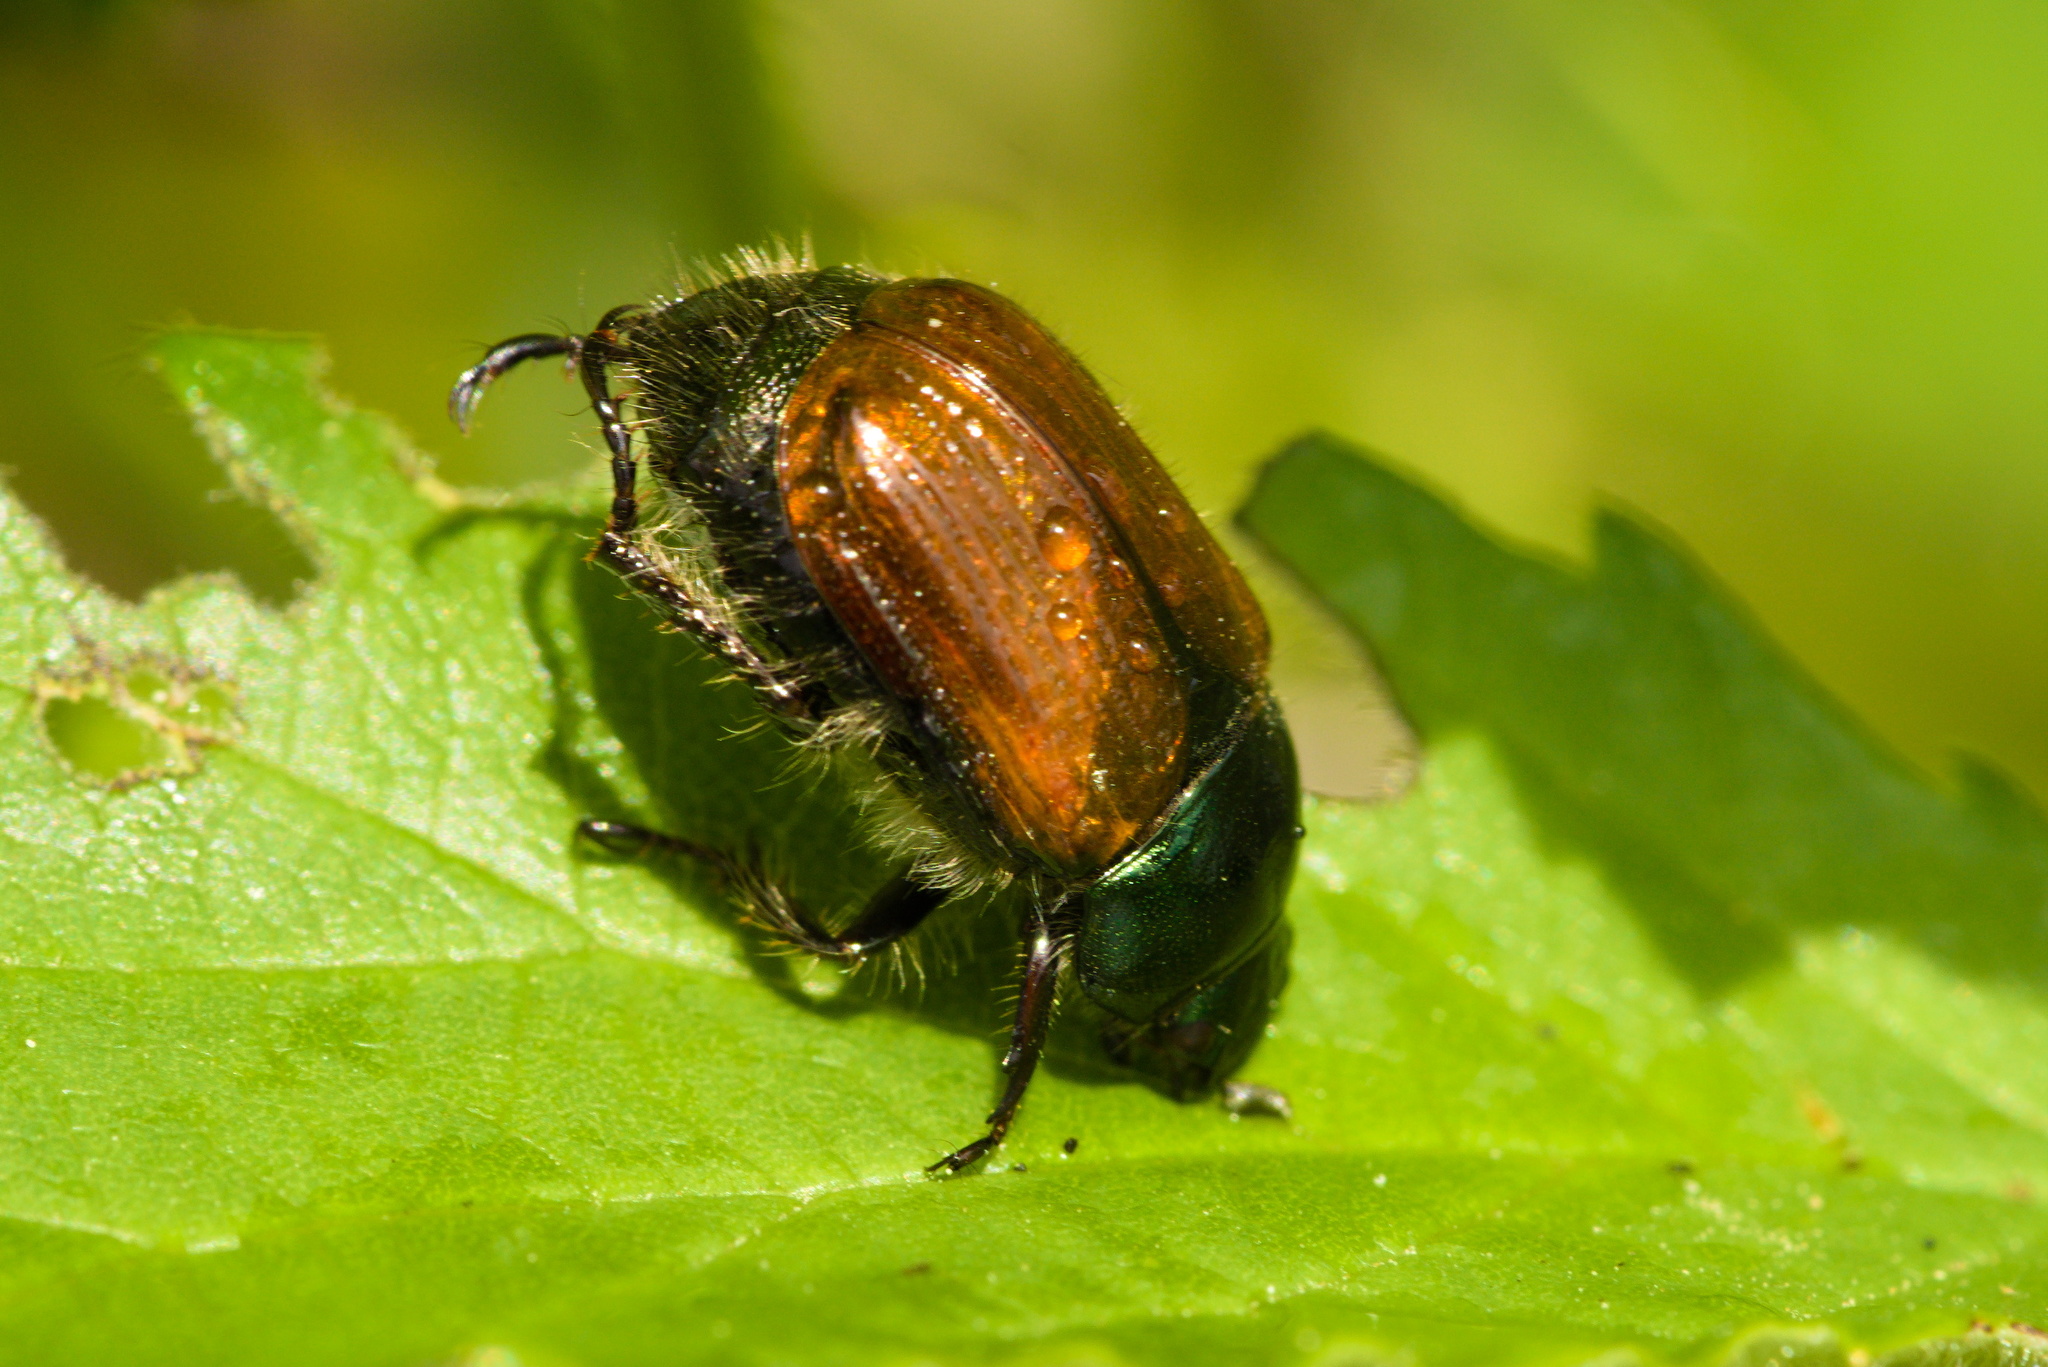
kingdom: Animalia
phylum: Arthropoda
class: Insecta
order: Coleoptera
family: Scarabaeidae
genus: Phyllopertha
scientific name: Phyllopertha horticola
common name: Garden chafer
